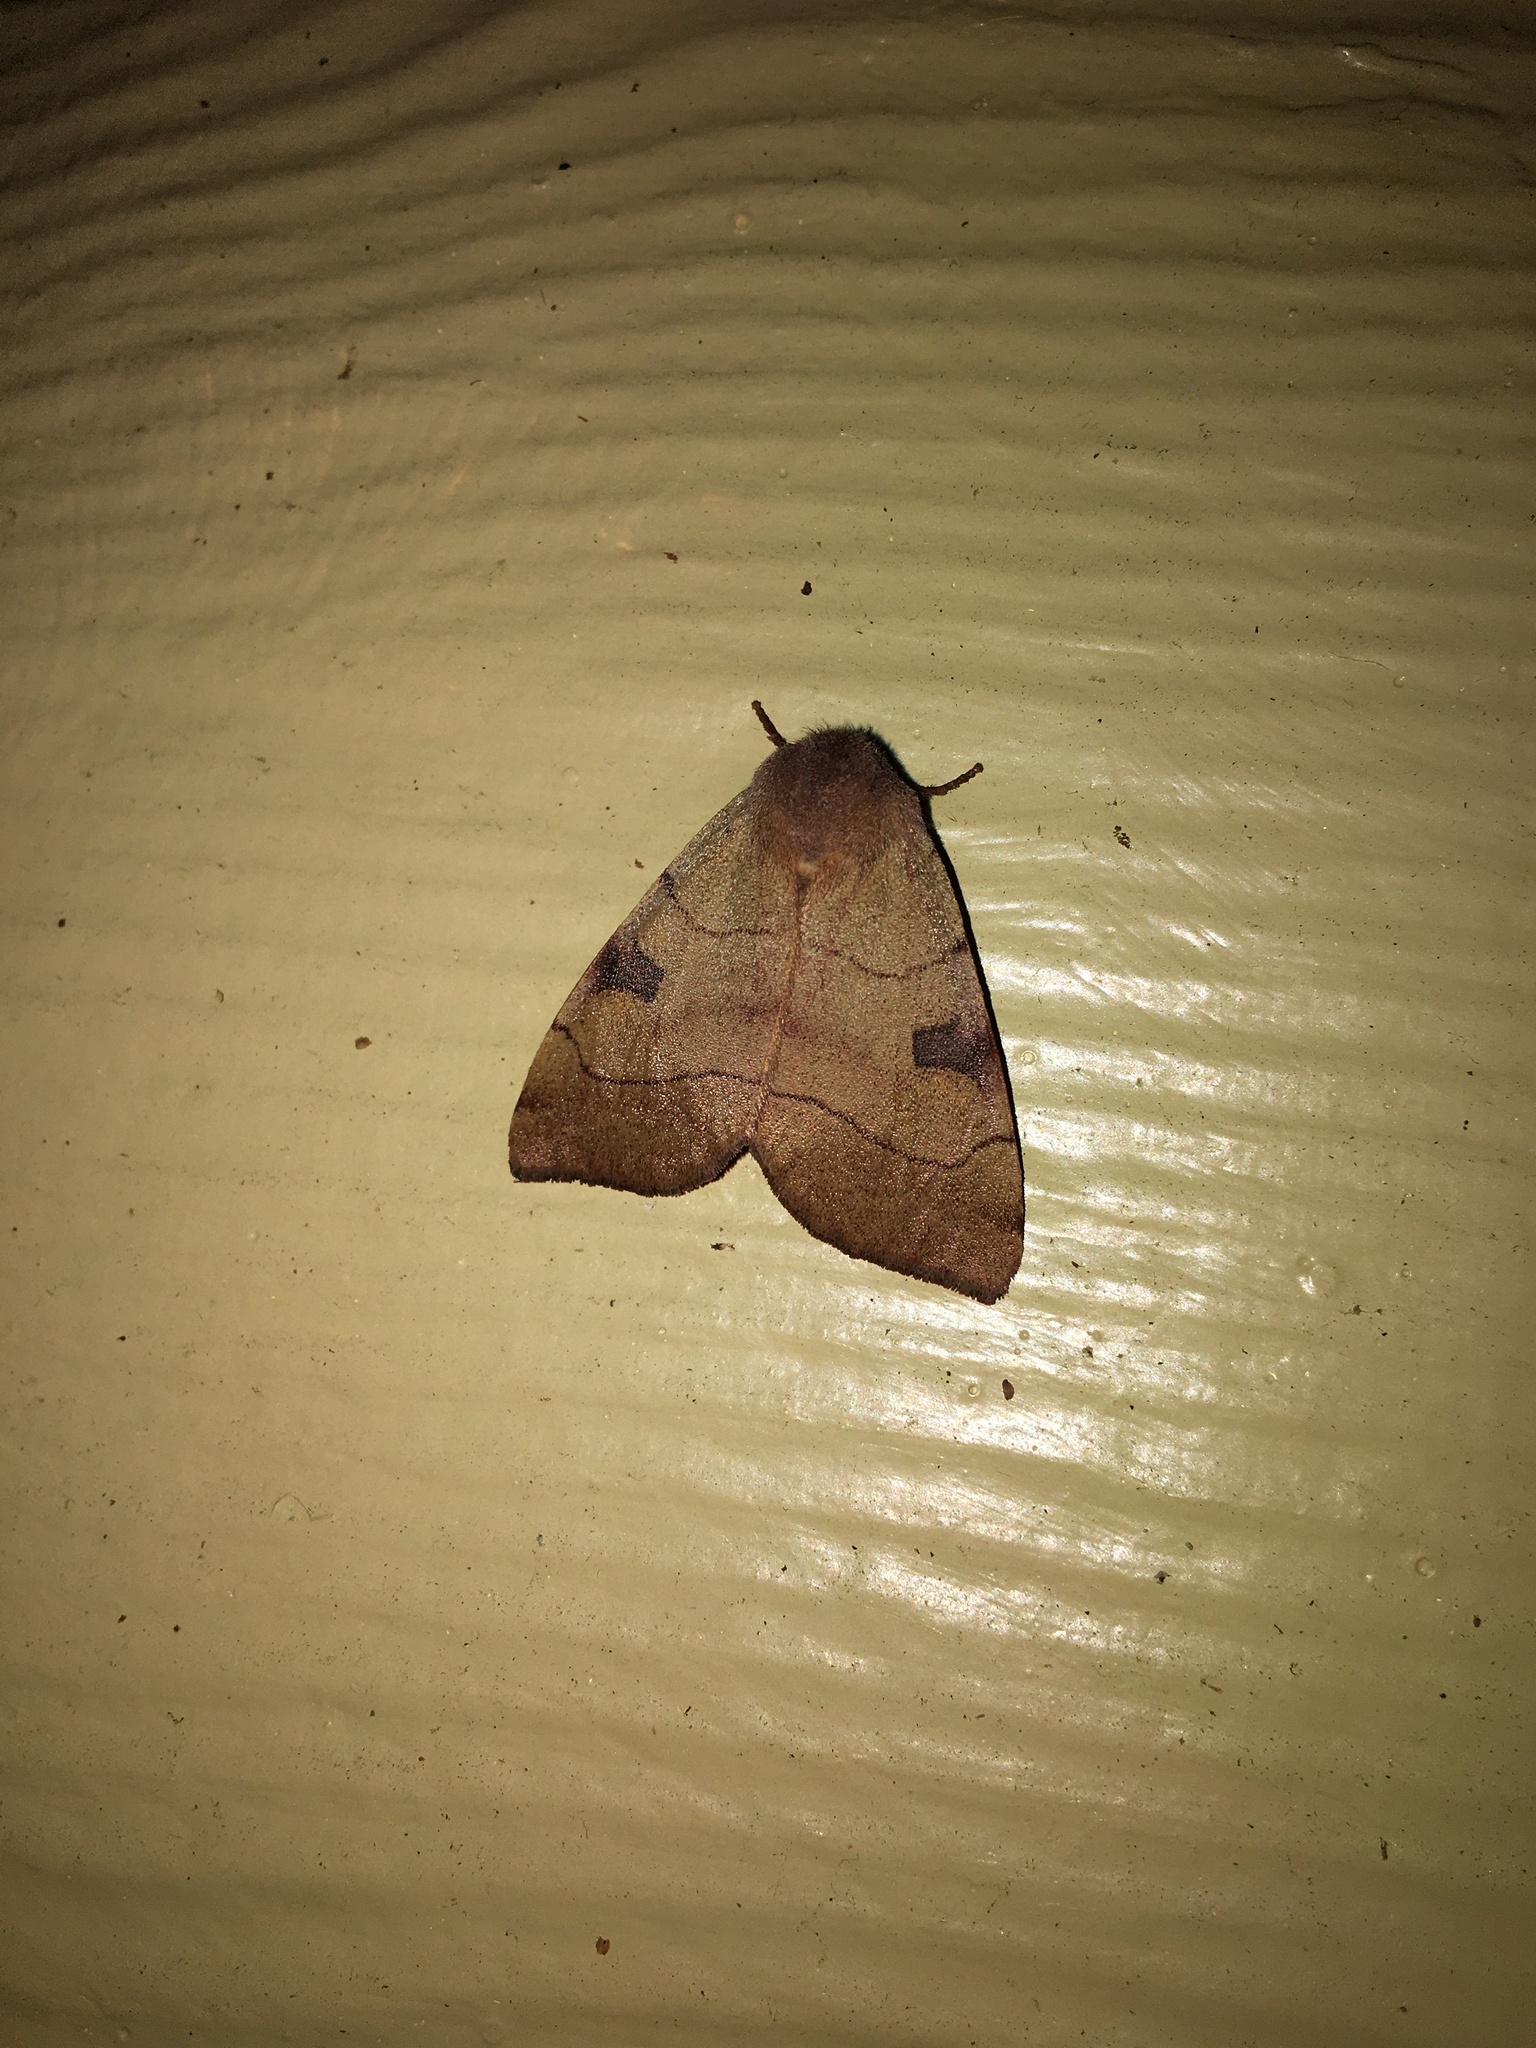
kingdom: Animalia
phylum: Arthropoda
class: Insecta
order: Lepidoptera
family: Noctuidae
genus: Choephora
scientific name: Choephora fungorum
